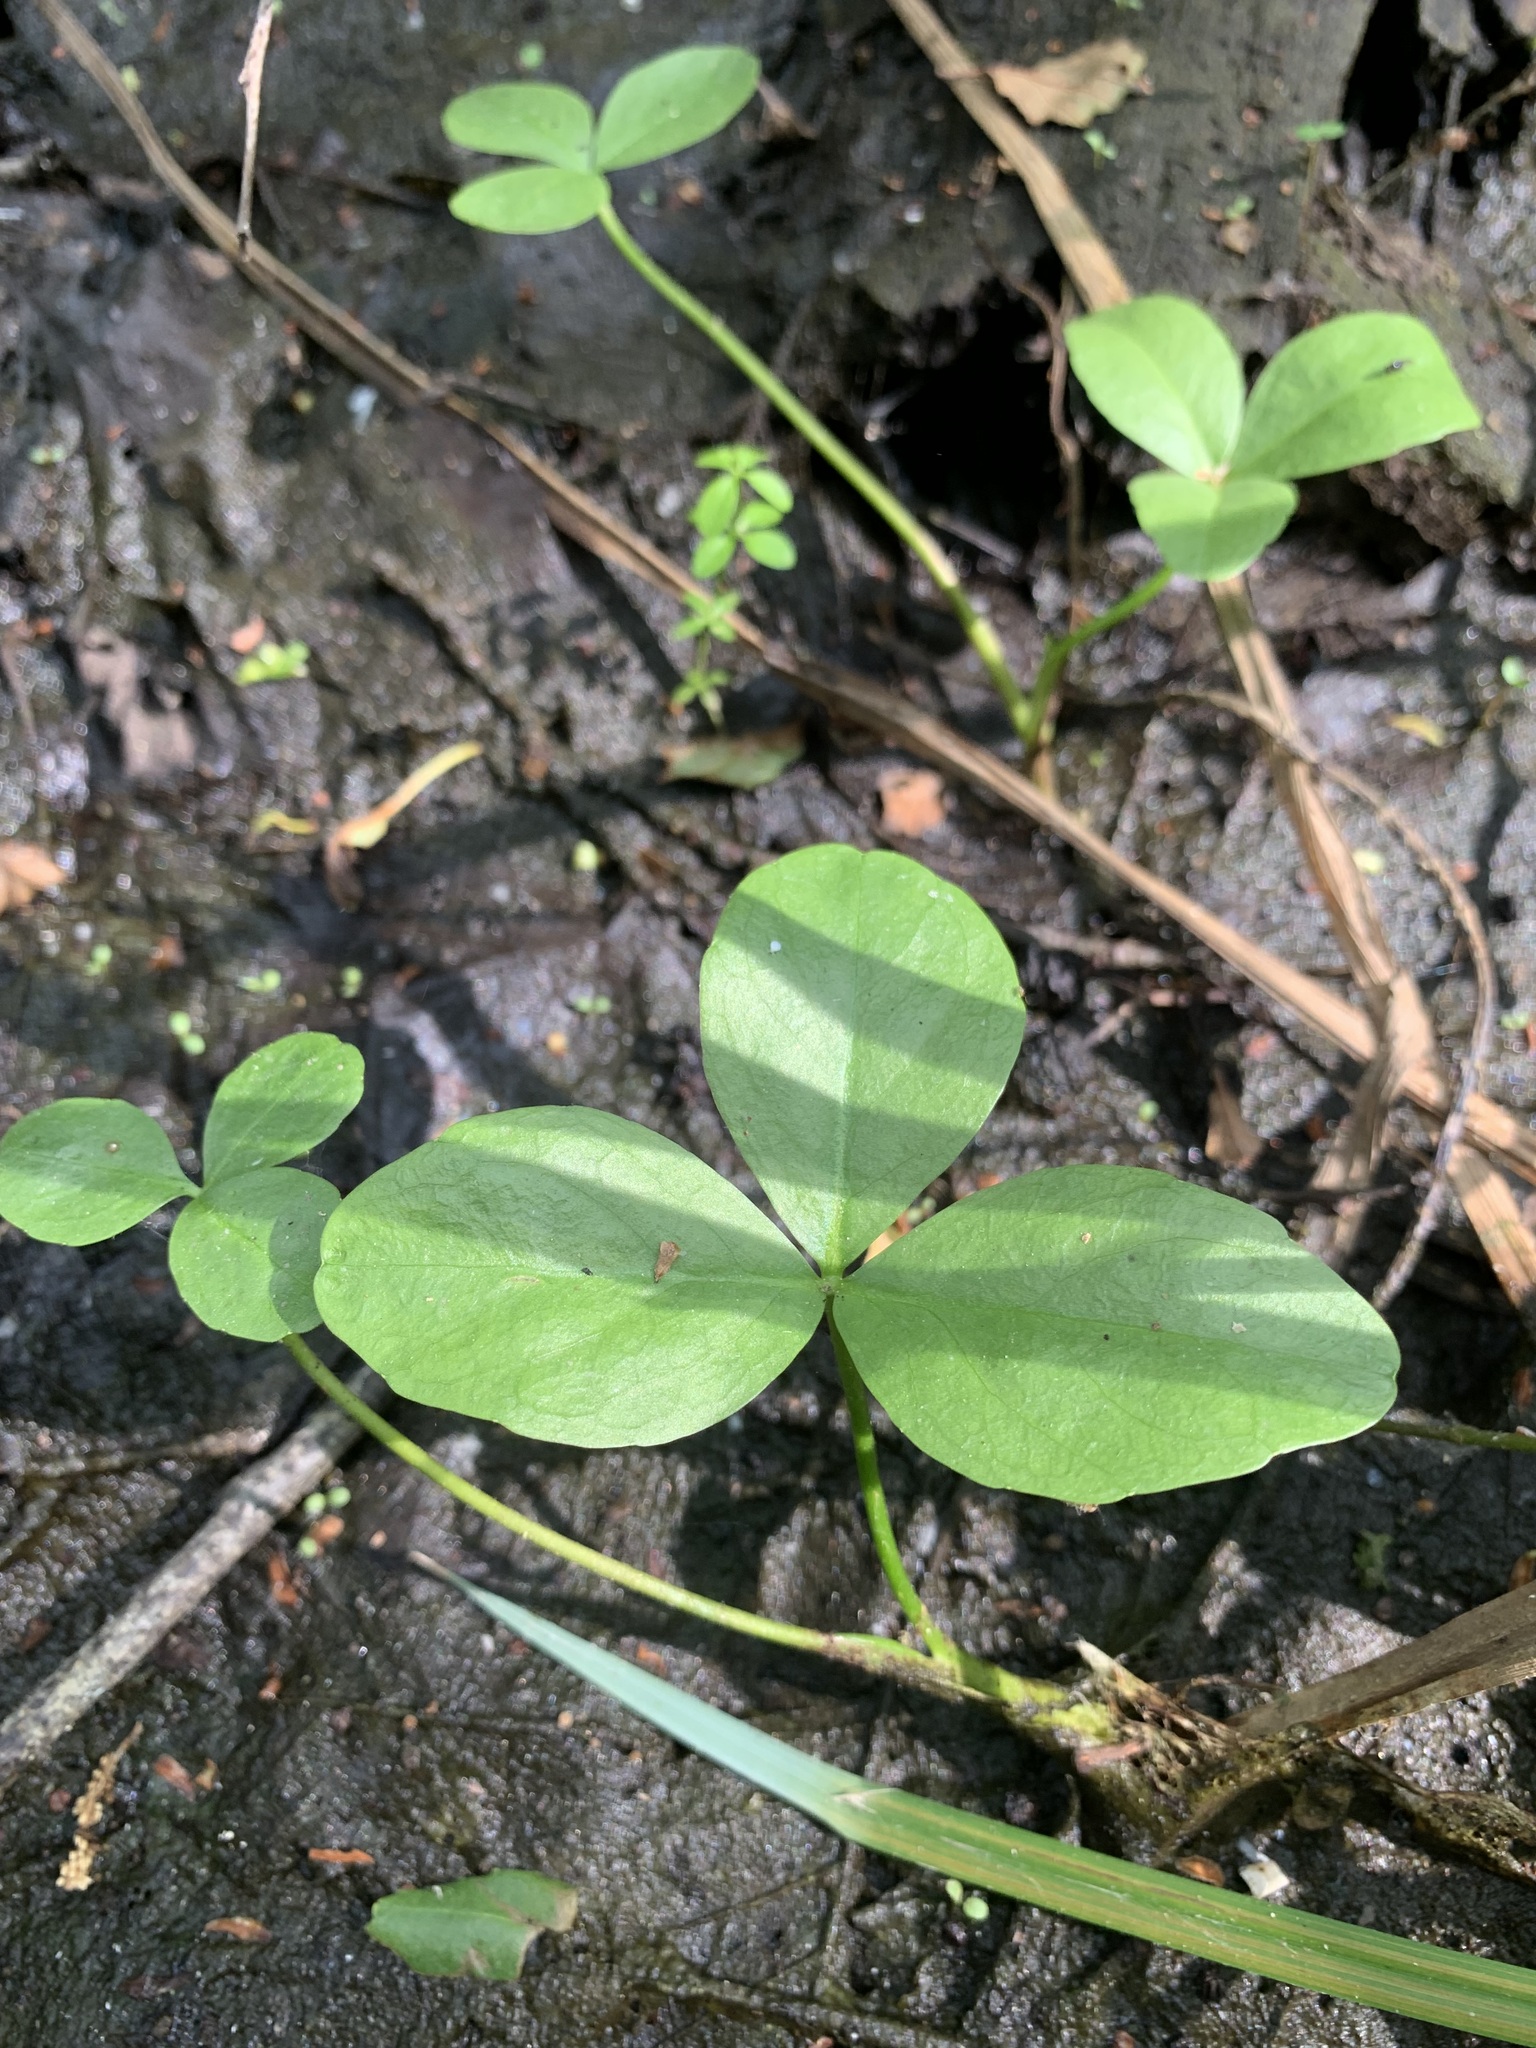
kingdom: Plantae
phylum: Tracheophyta
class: Magnoliopsida
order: Asterales
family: Menyanthaceae
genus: Menyanthes
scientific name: Menyanthes trifoliata
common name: Bogbean
